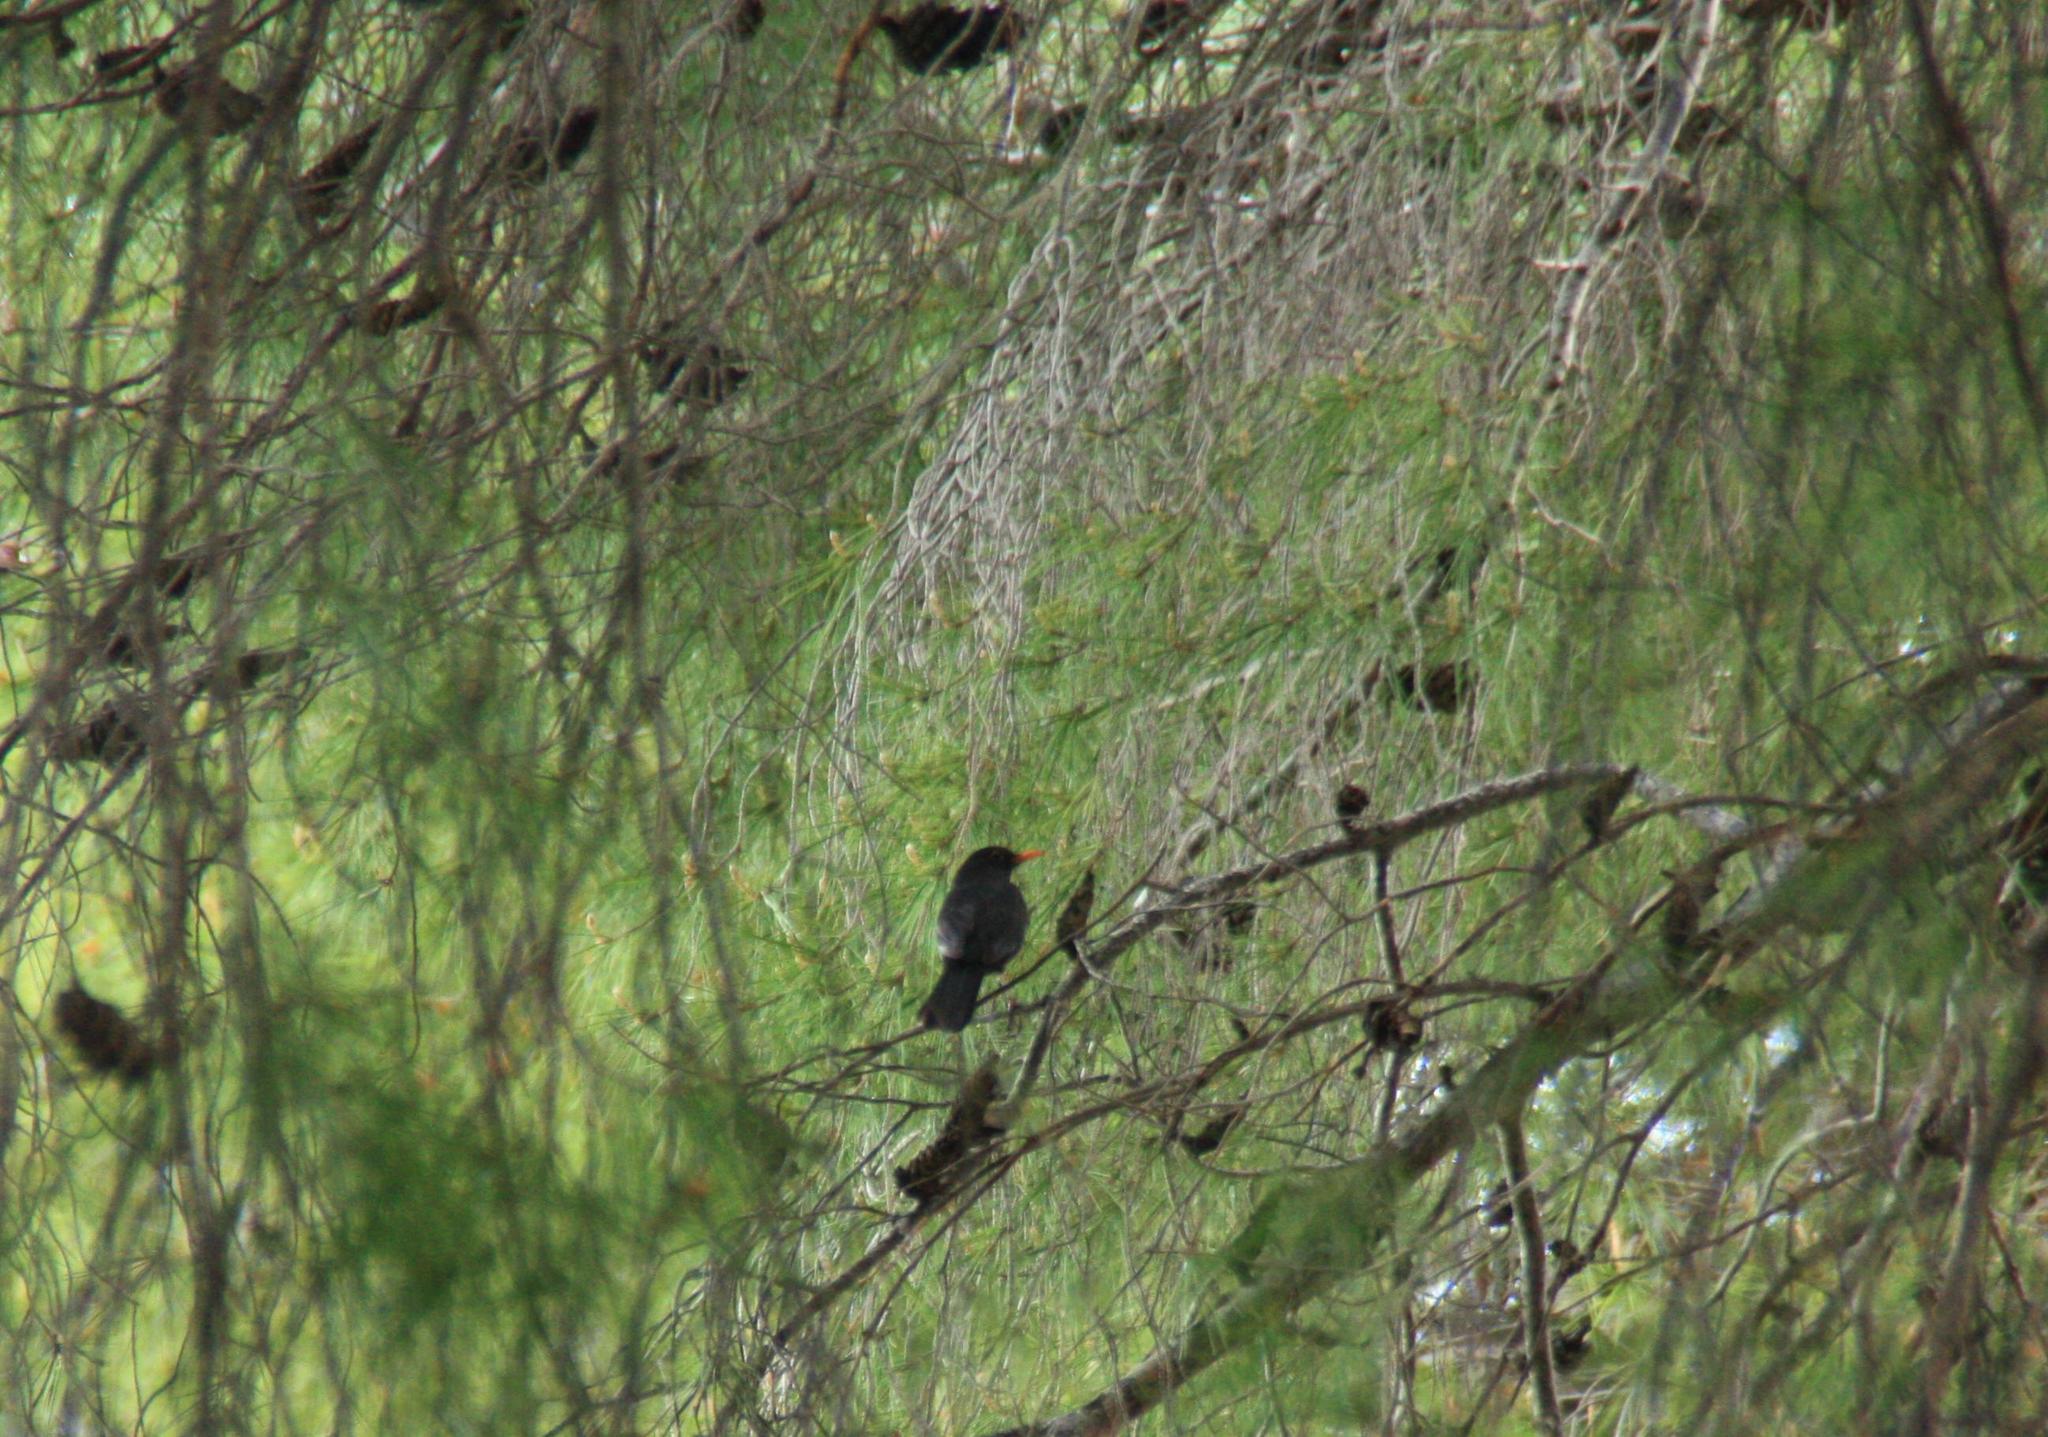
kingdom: Animalia
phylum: Chordata
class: Aves
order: Passeriformes
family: Turdidae
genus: Turdus
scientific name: Turdus merula
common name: Common blackbird
